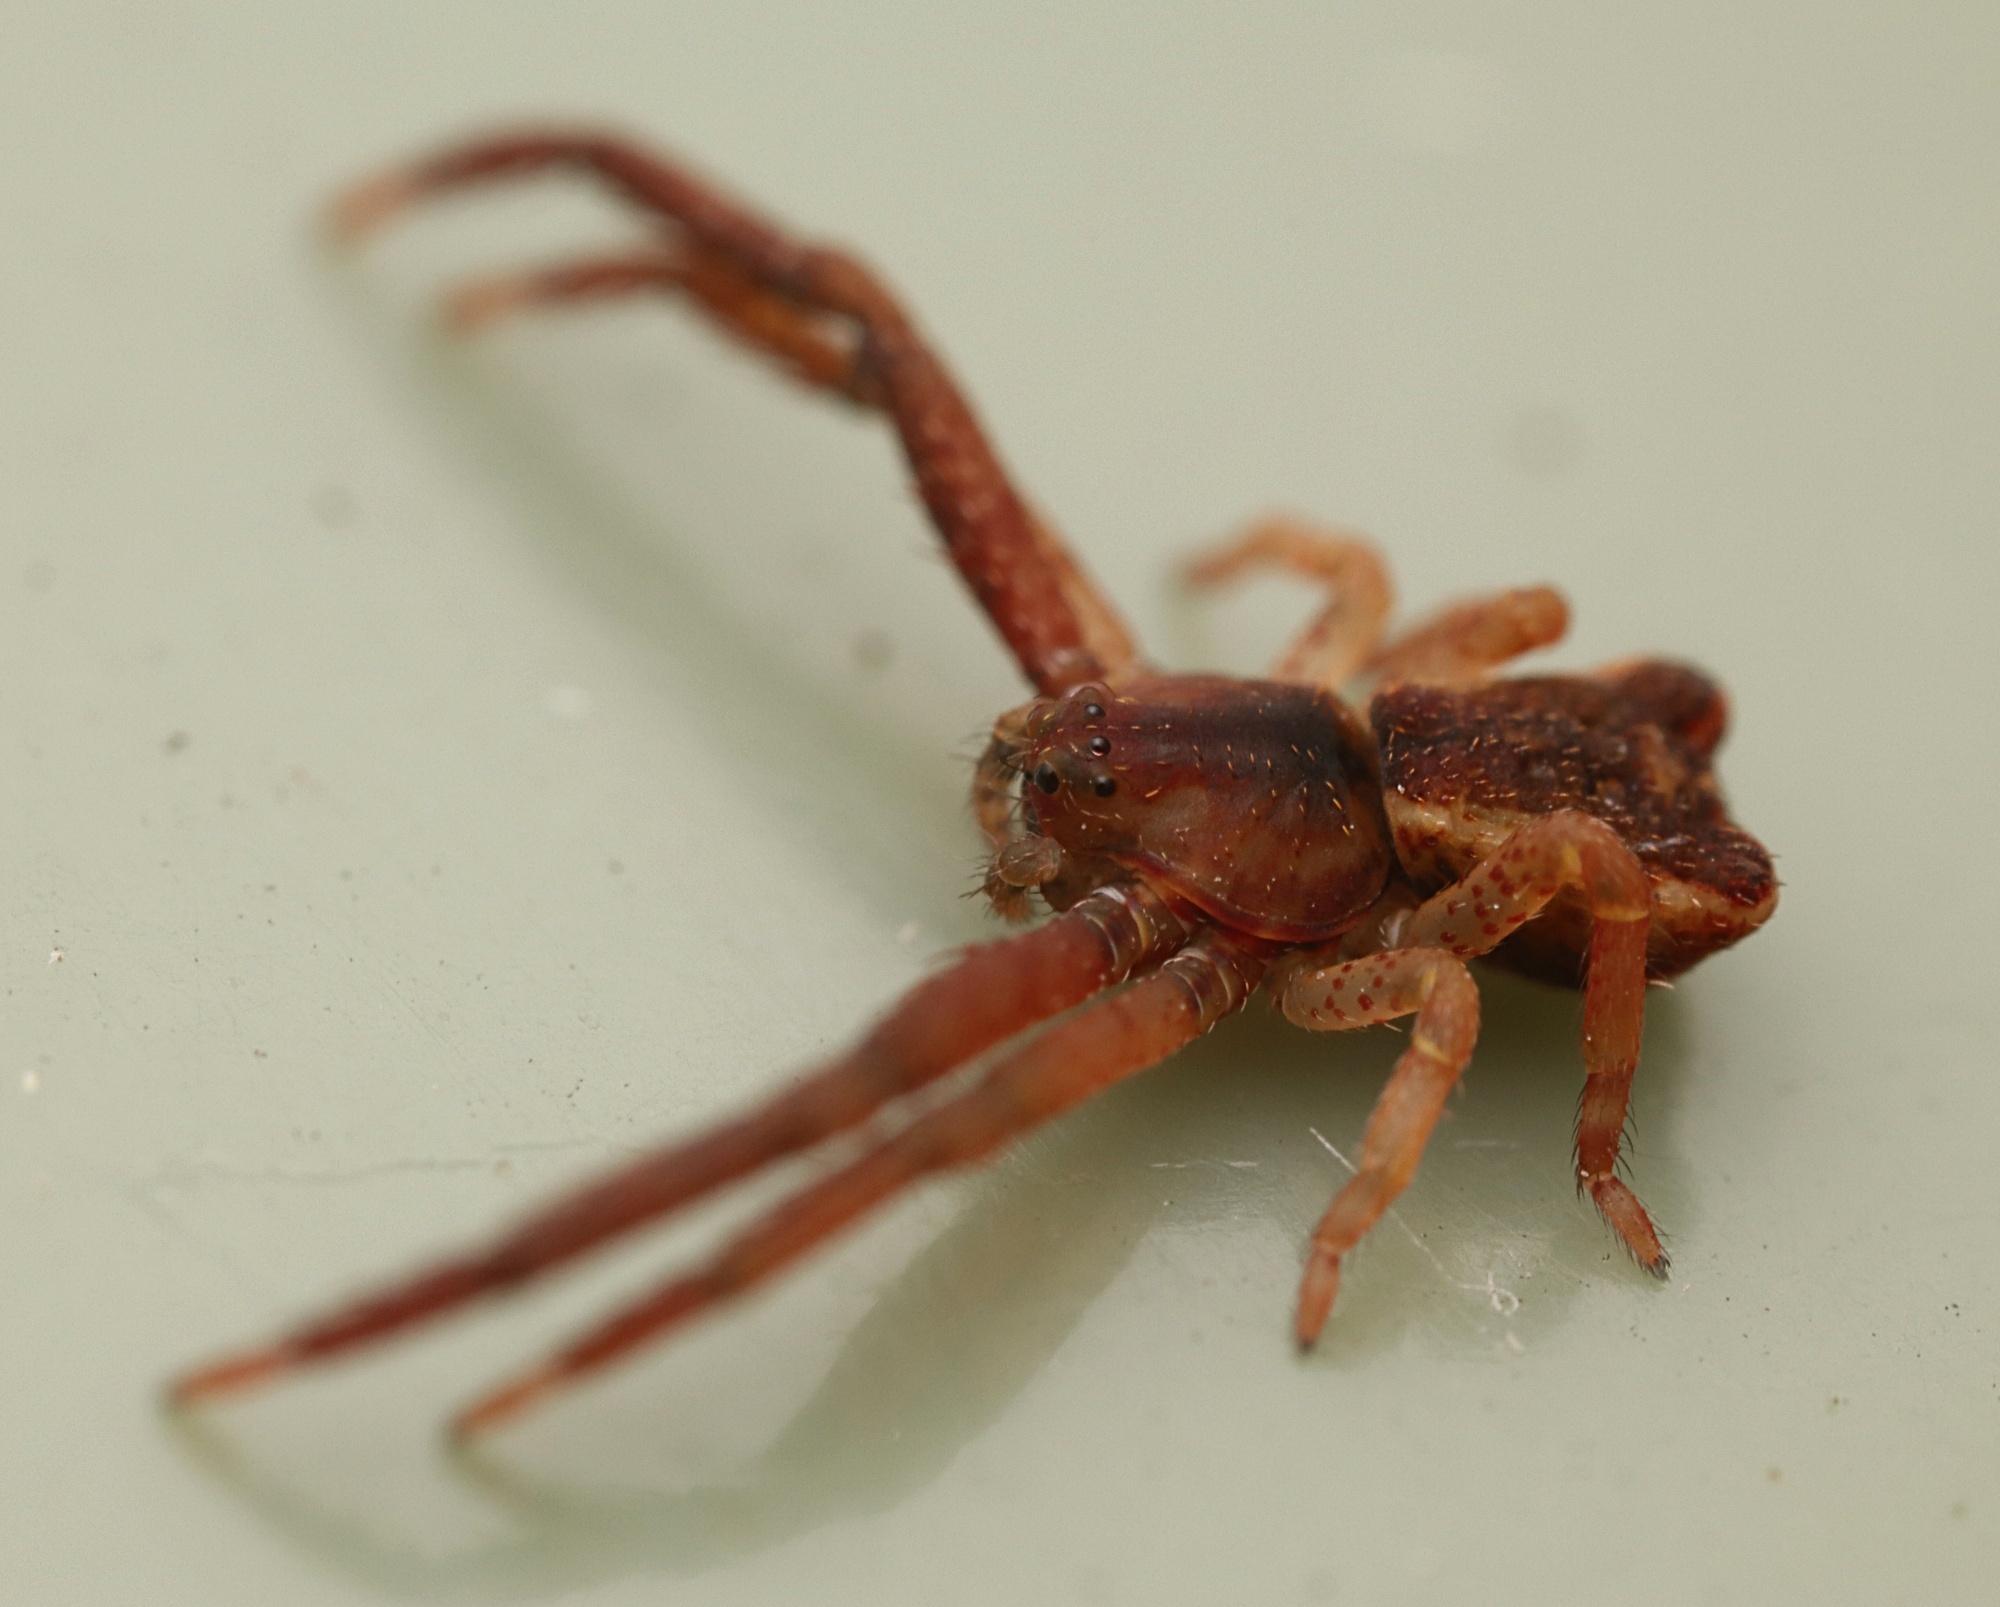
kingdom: Animalia
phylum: Arthropoda
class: Arachnida
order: Araneae
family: Thomisidae
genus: Sidymella
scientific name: Sidymella angularis
